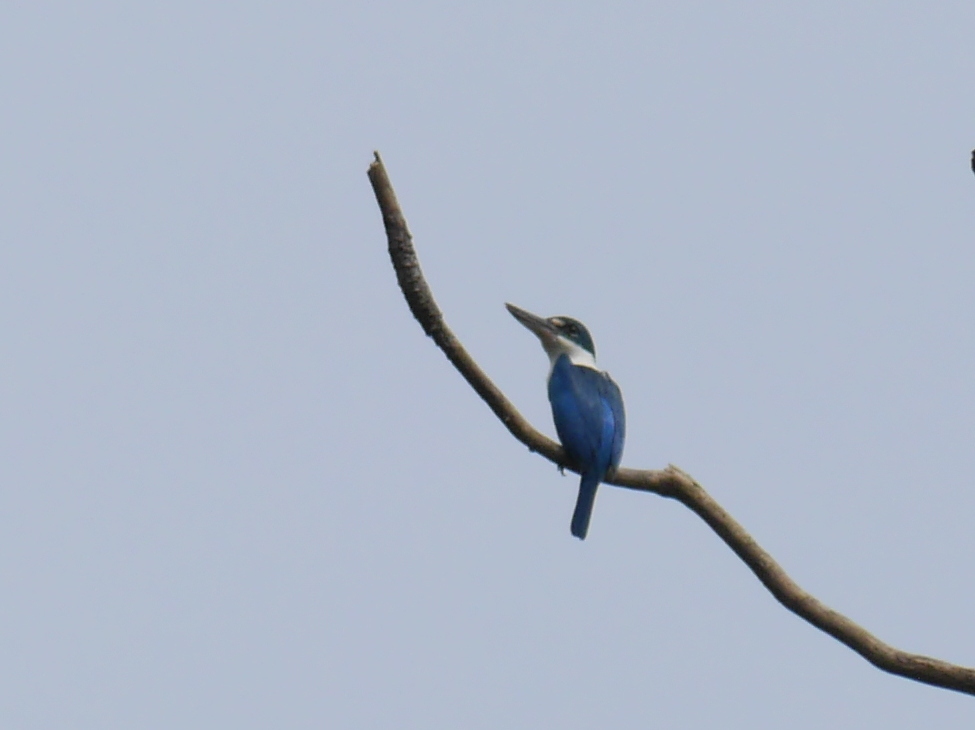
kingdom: Animalia
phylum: Chordata
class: Aves
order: Coraciiformes
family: Alcedinidae
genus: Todiramphus
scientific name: Todiramphus chloris
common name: Collared kingfisher
